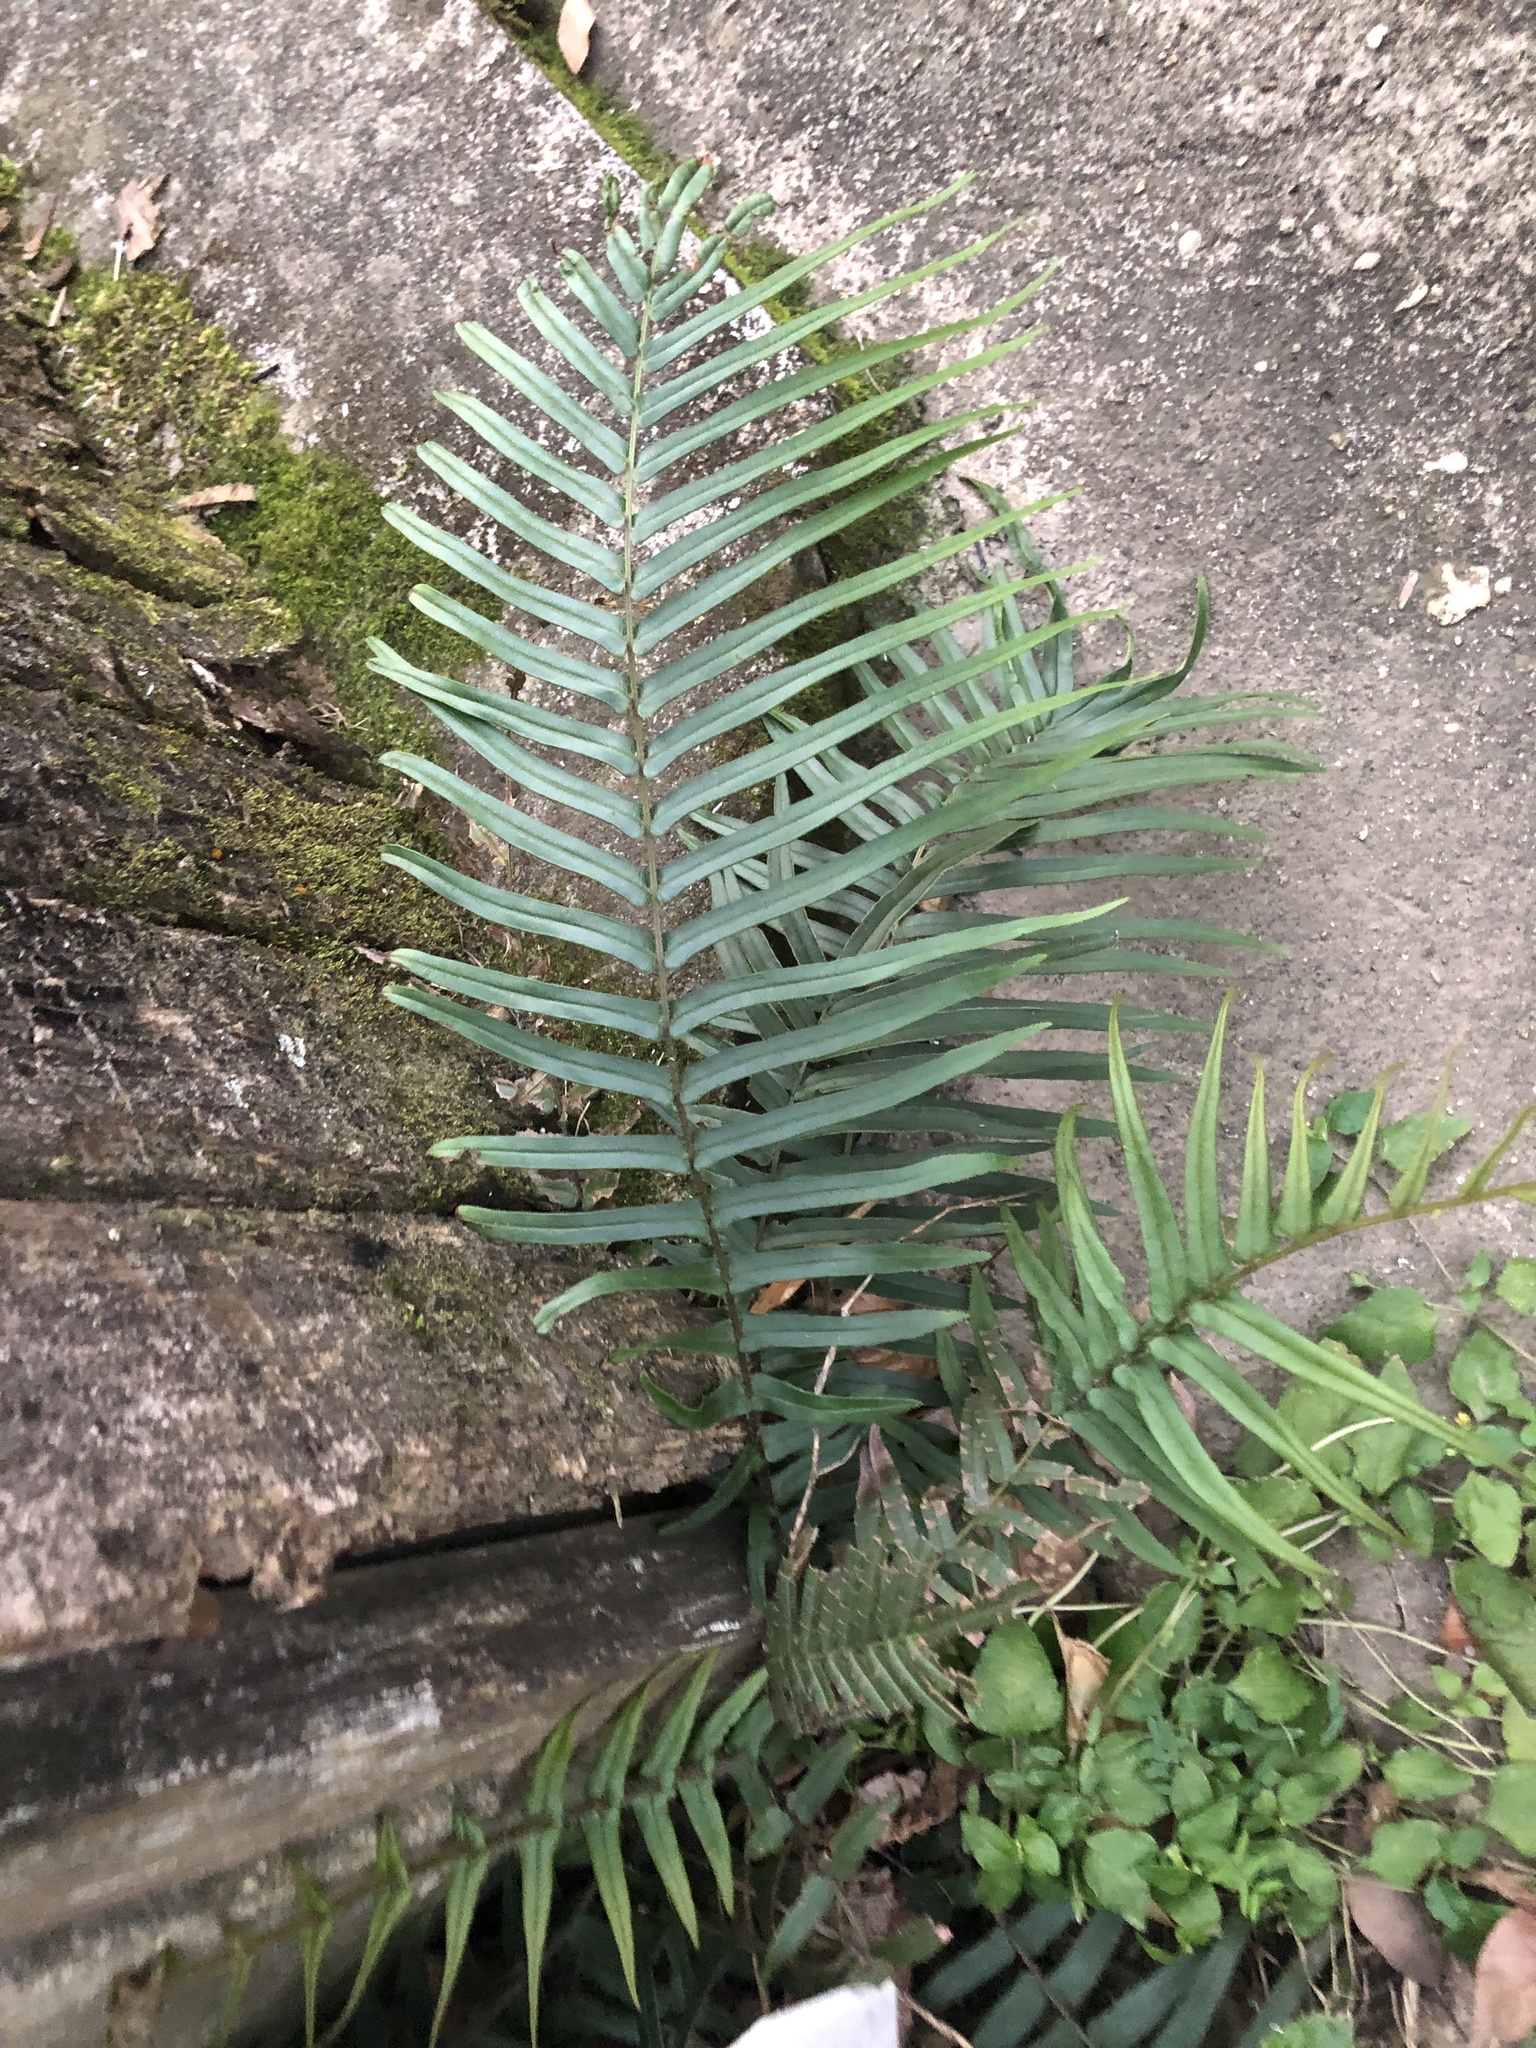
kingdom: Plantae
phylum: Tracheophyta
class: Polypodiopsida
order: Polypodiales
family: Pteridaceae
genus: Pteris
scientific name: Pteris vittata
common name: Ladder brake
